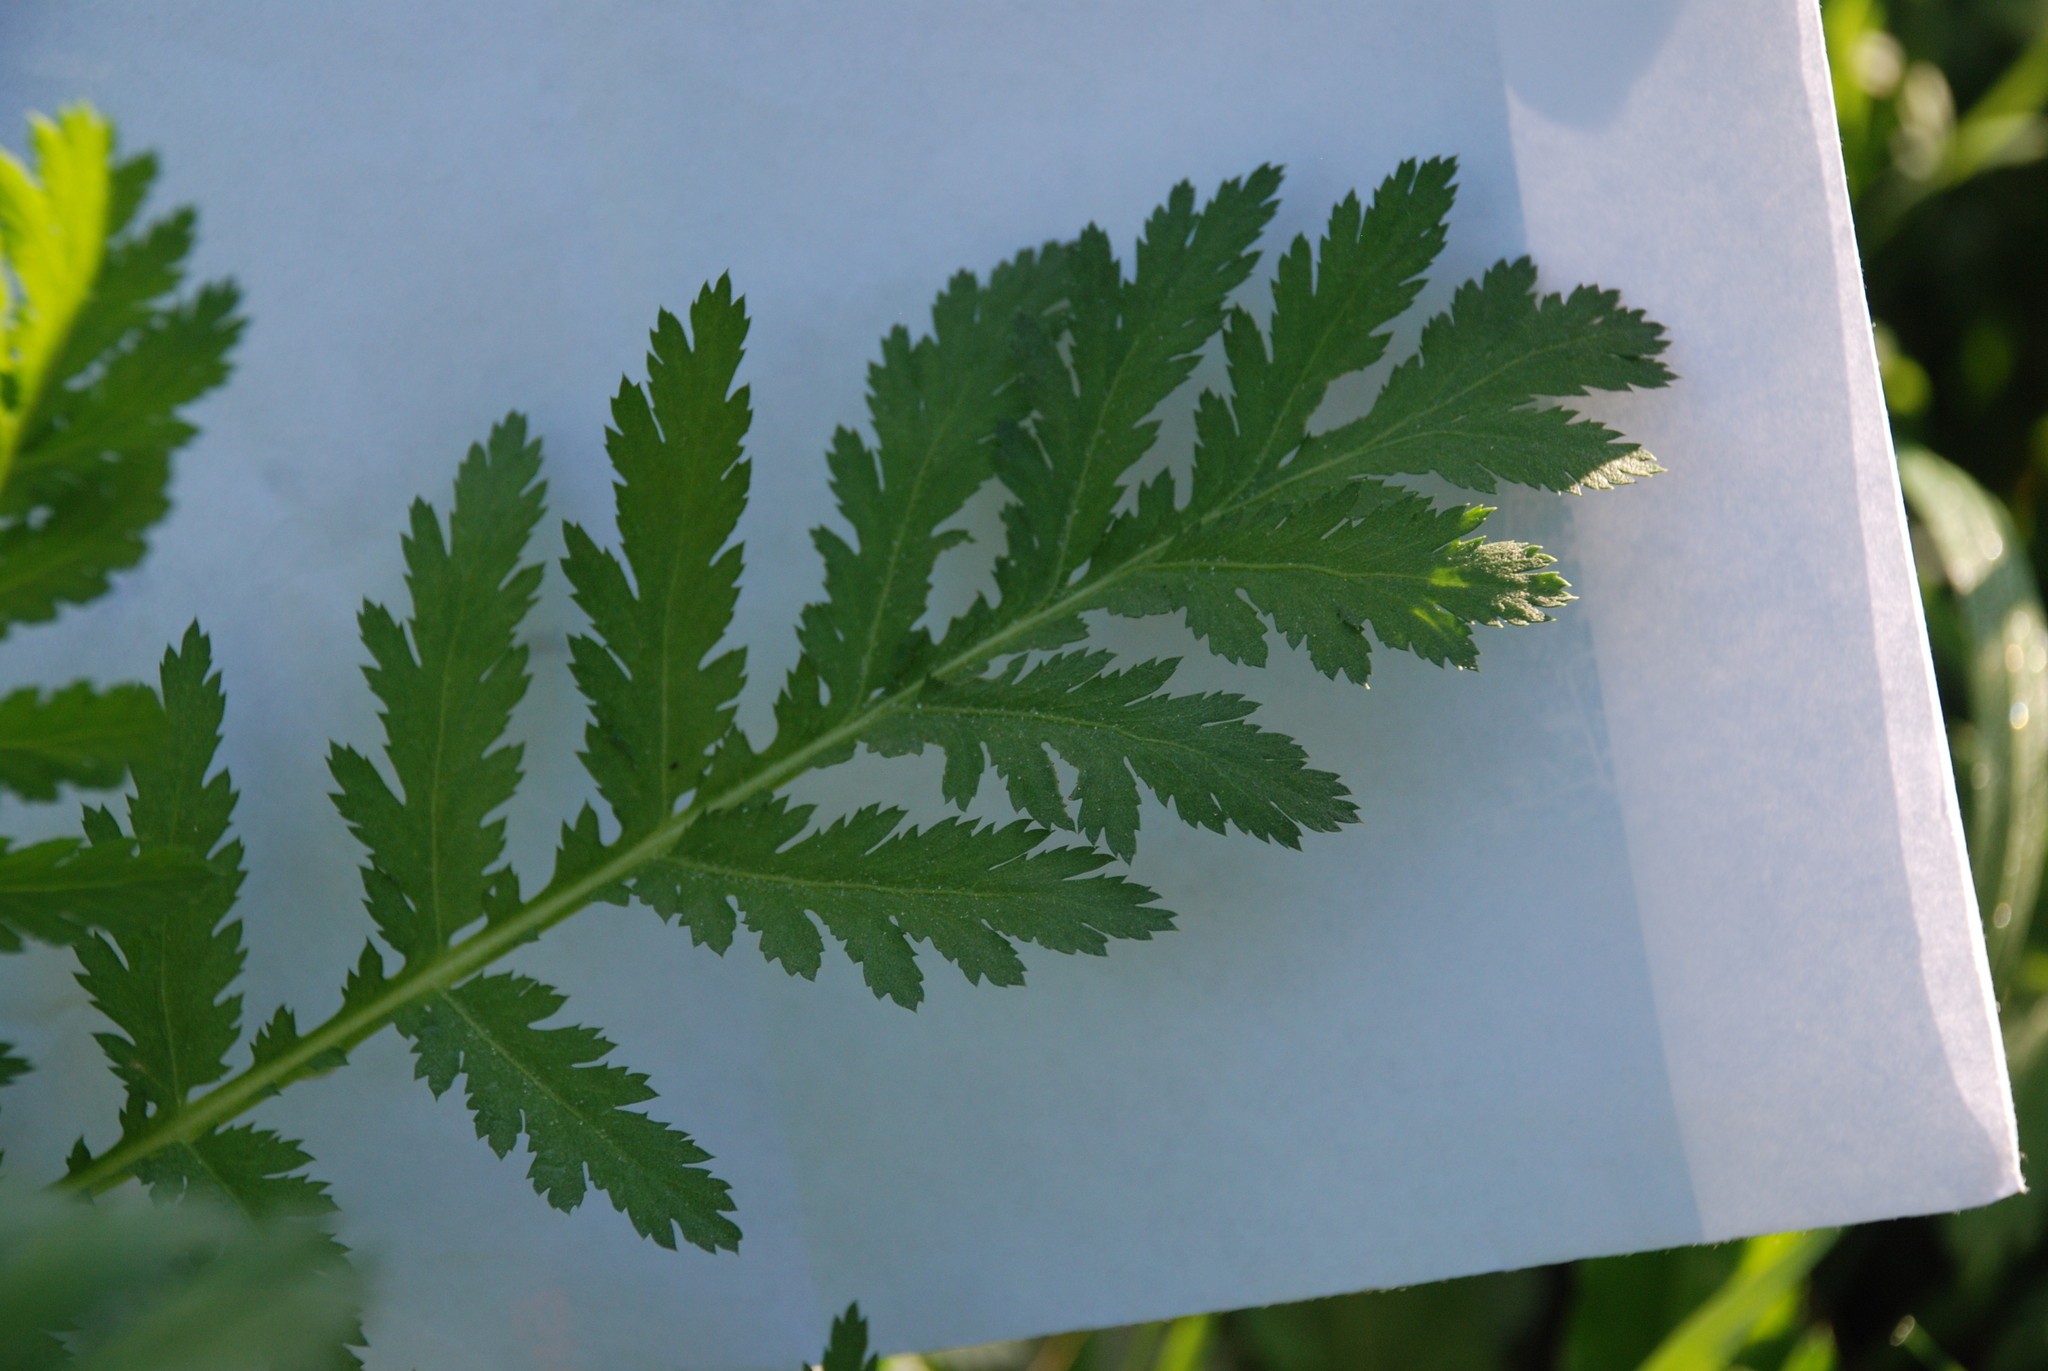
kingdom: Plantae
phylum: Tracheophyta
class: Magnoliopsida
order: Asterales
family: Asteraceae
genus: Tanacetum
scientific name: Tanacetum vulgare
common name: Common tansy
